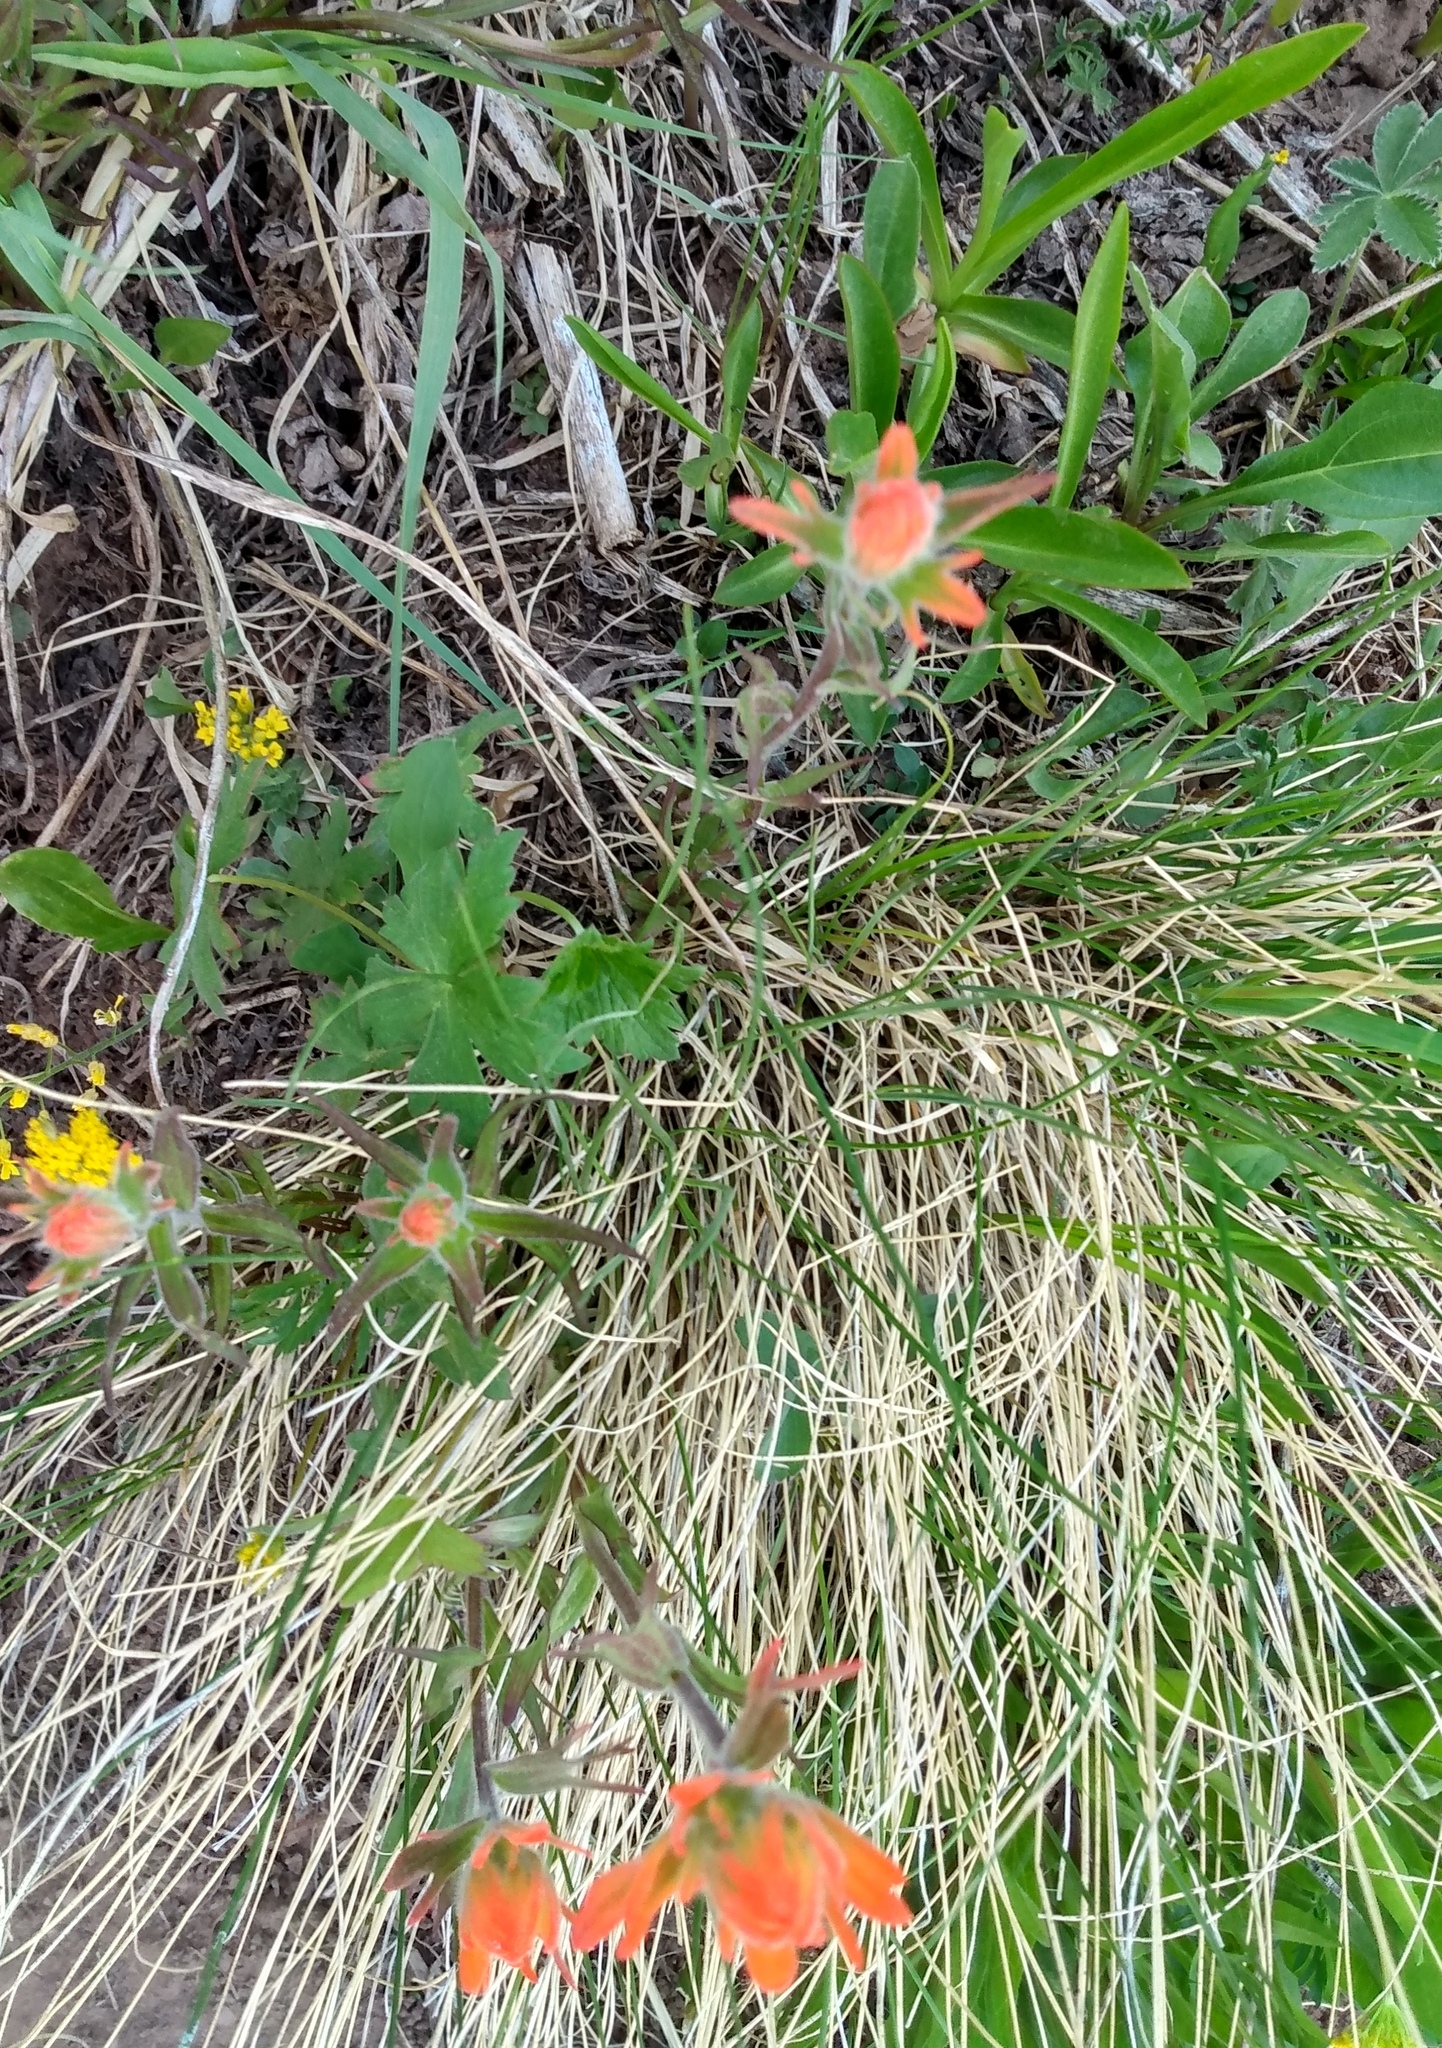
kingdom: Plantae
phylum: Tracheophyta
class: Magnoliopsida
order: Lamiales
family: Orobanchaceae
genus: Castilleja
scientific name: Castilleja miniata
